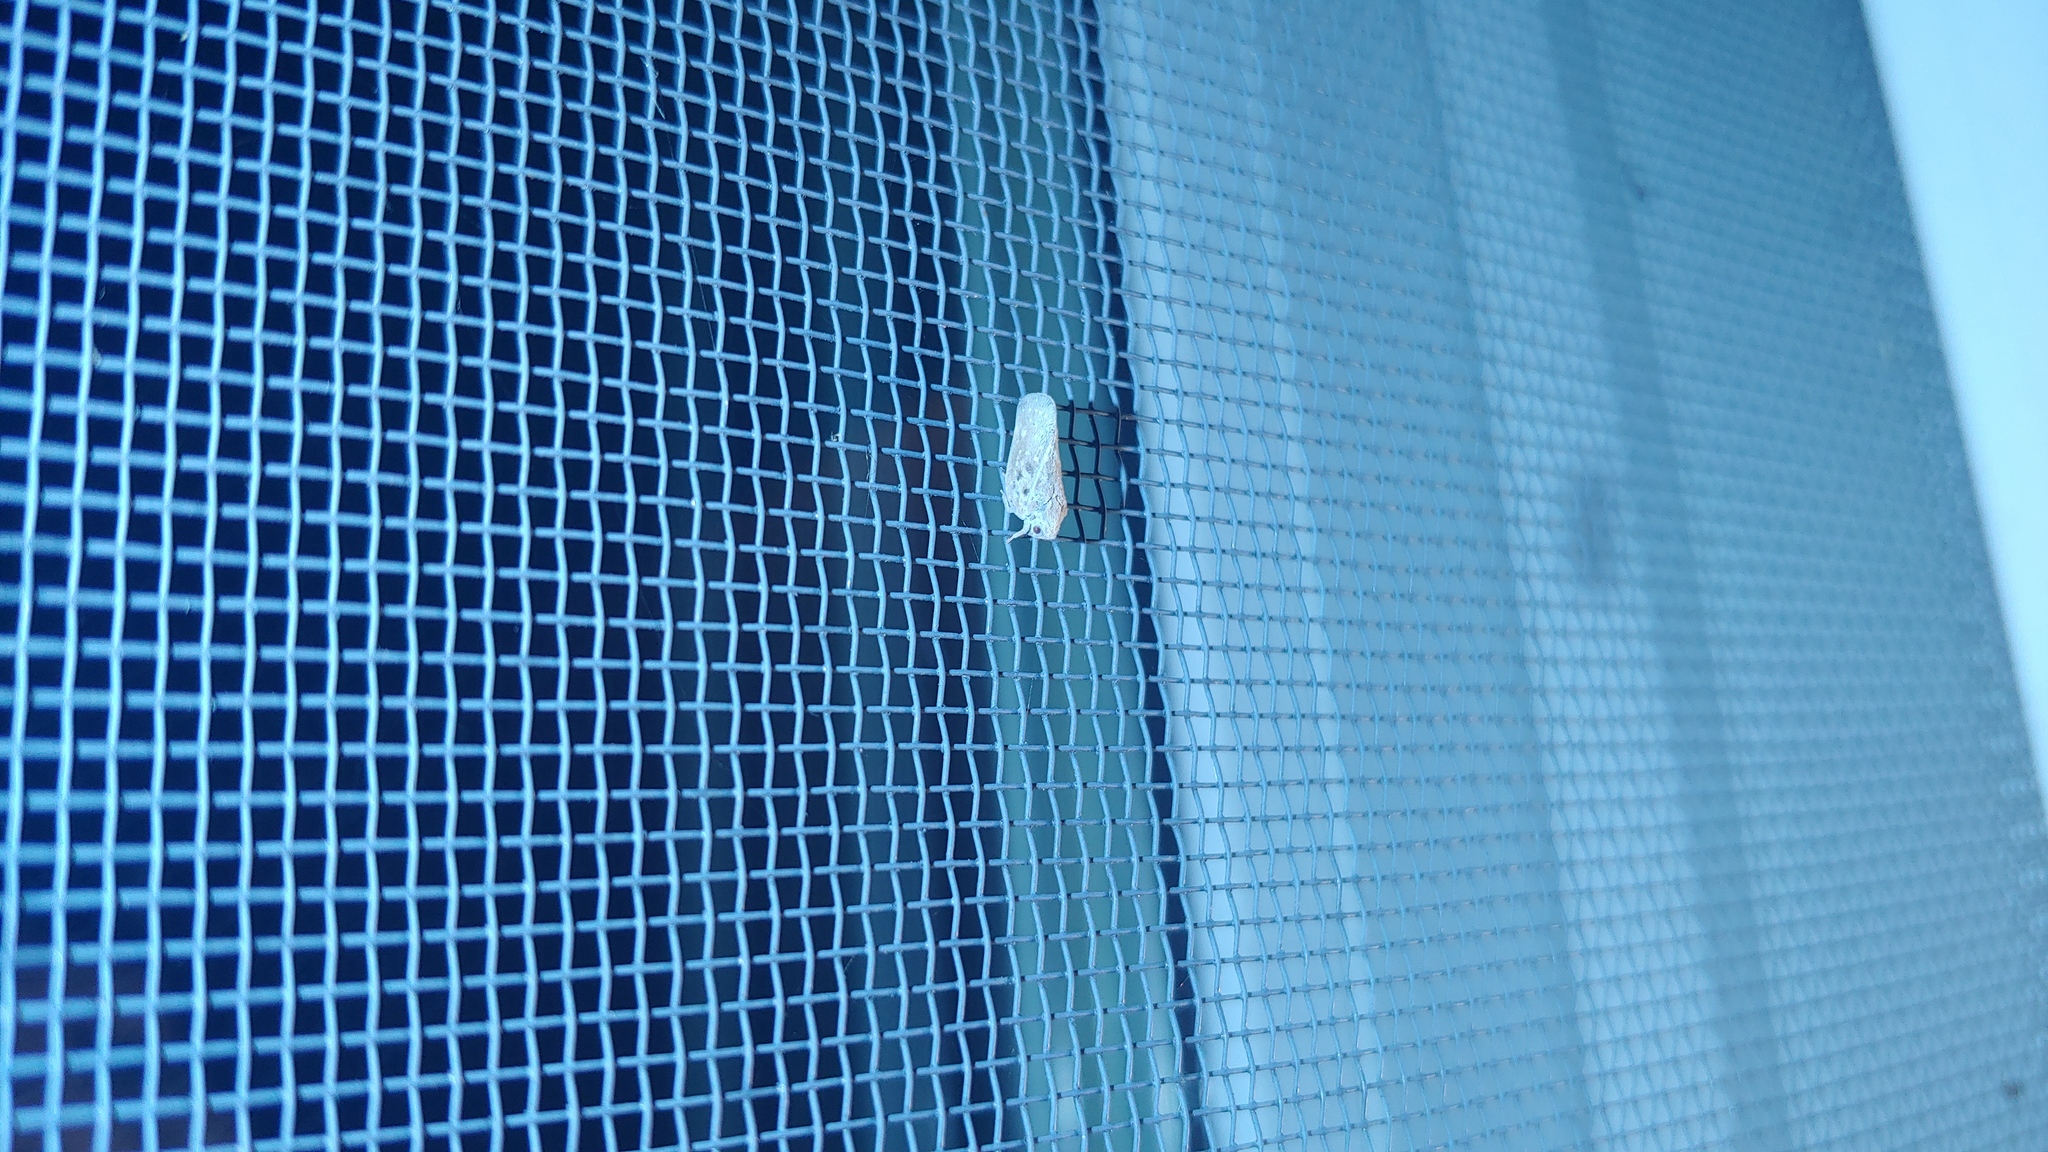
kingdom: Animalia
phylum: Arthropoda
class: Insecta
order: Hemiptera
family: Flatidae
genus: Metcalfa
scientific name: Metcalfa pruinosa
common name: Citrus flatid planthopper
